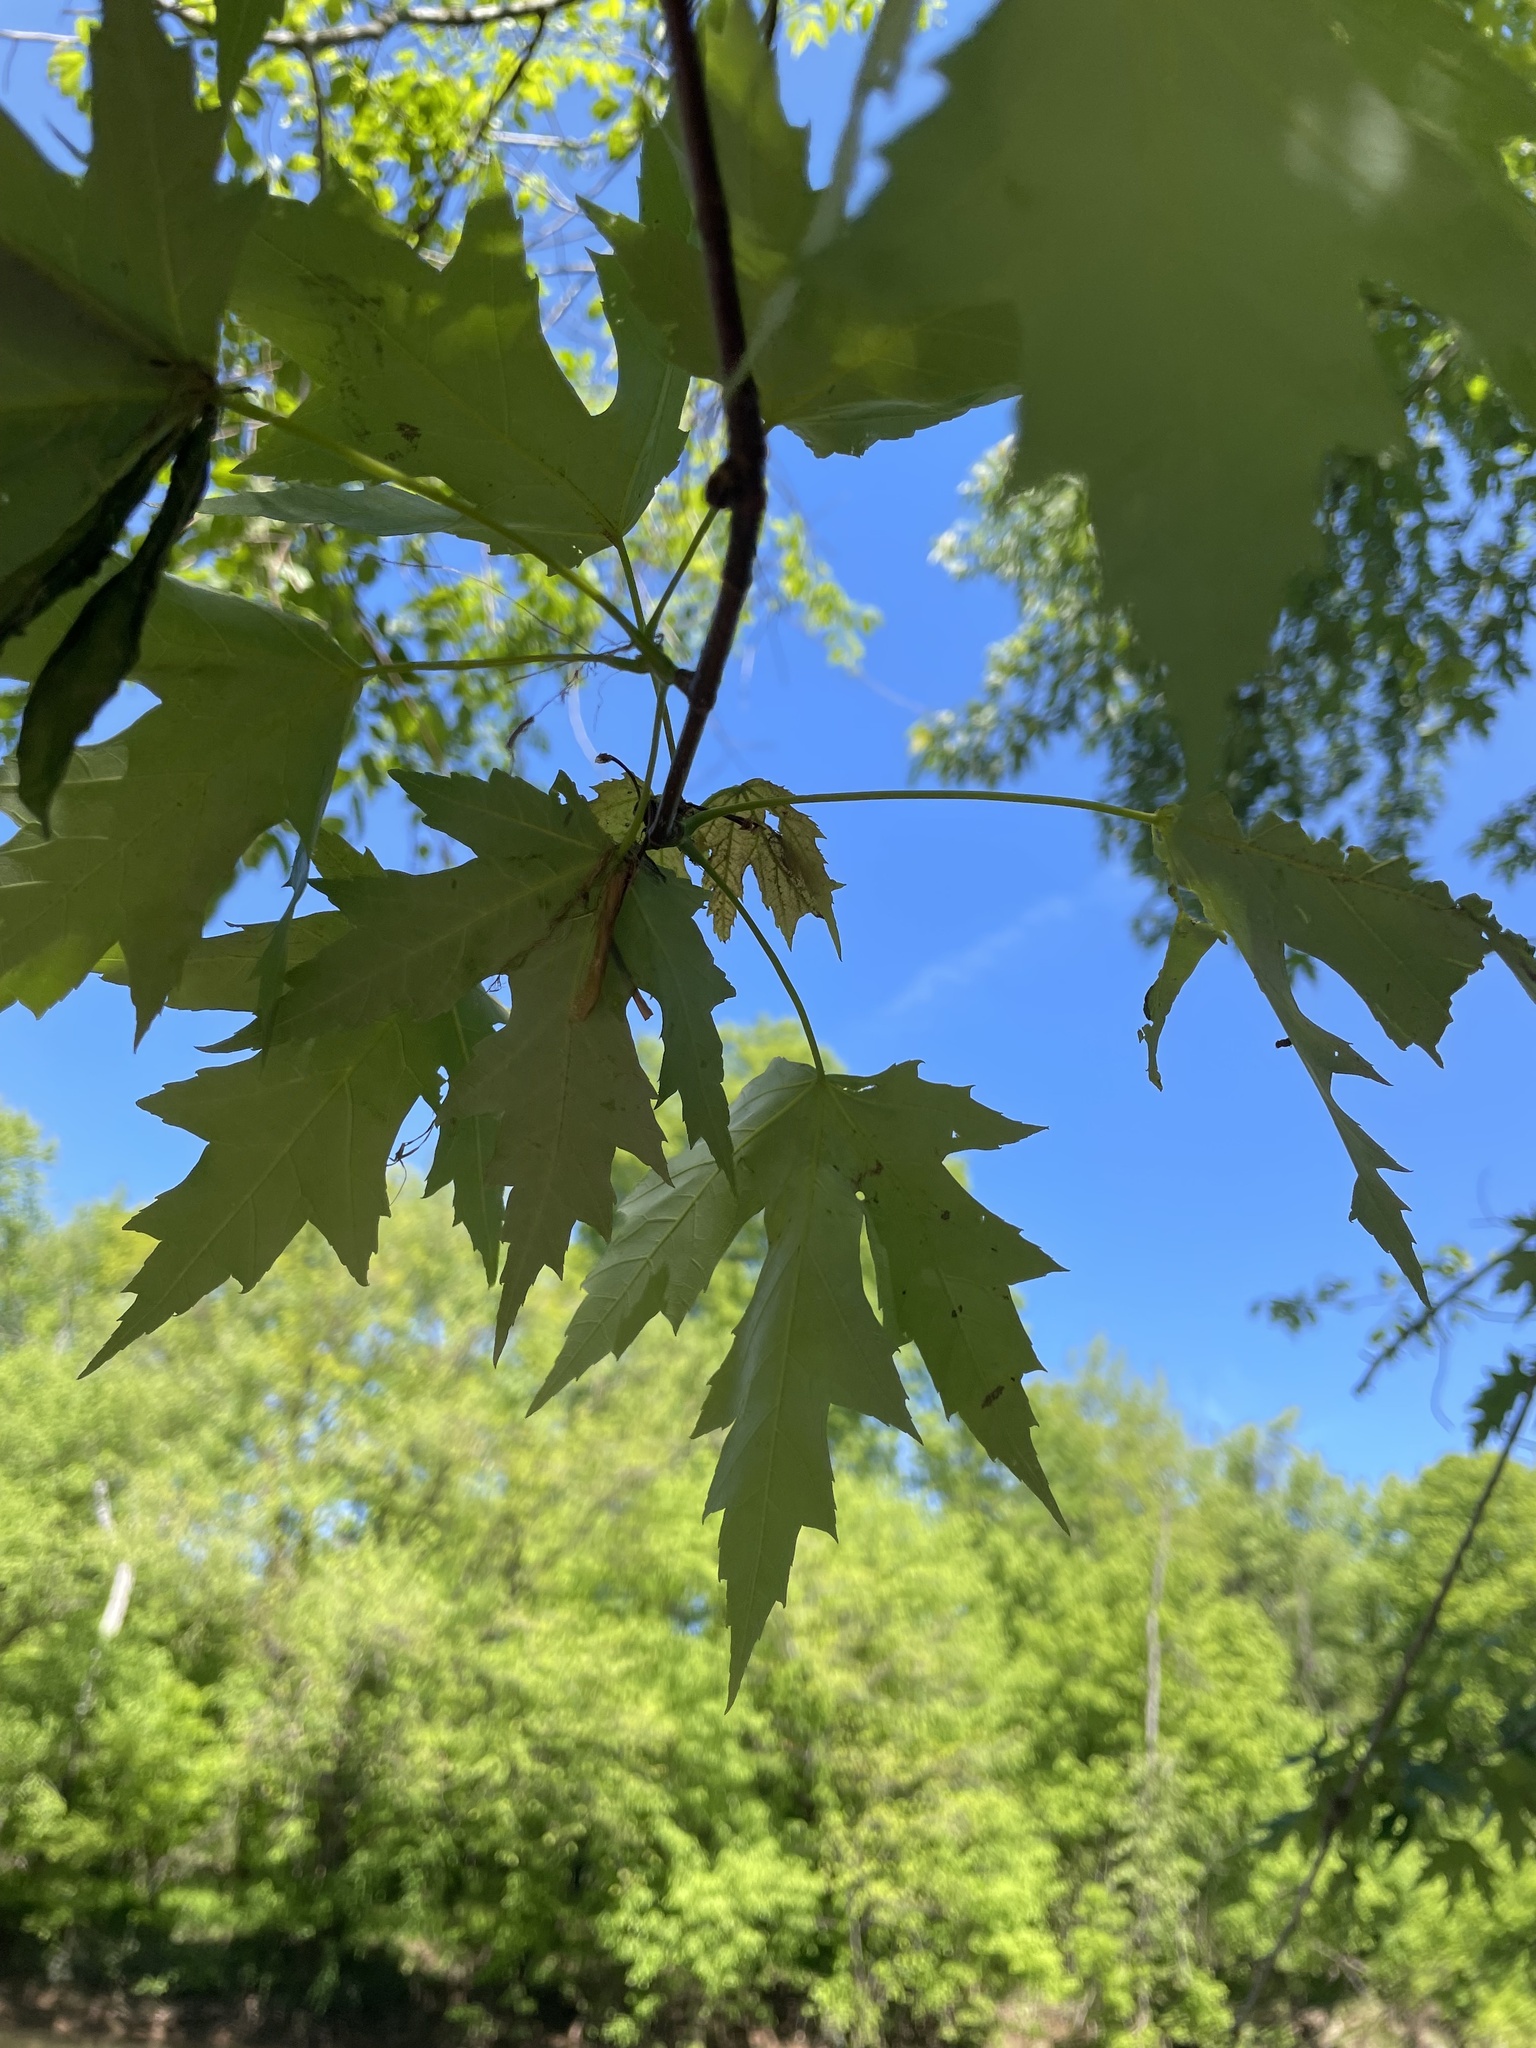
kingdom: Plantae
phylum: Tracheophyta
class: Magnoliopsida
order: Sapindales
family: Sapindaceae
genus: Acer
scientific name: Acer saccharinum
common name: Silver maple
